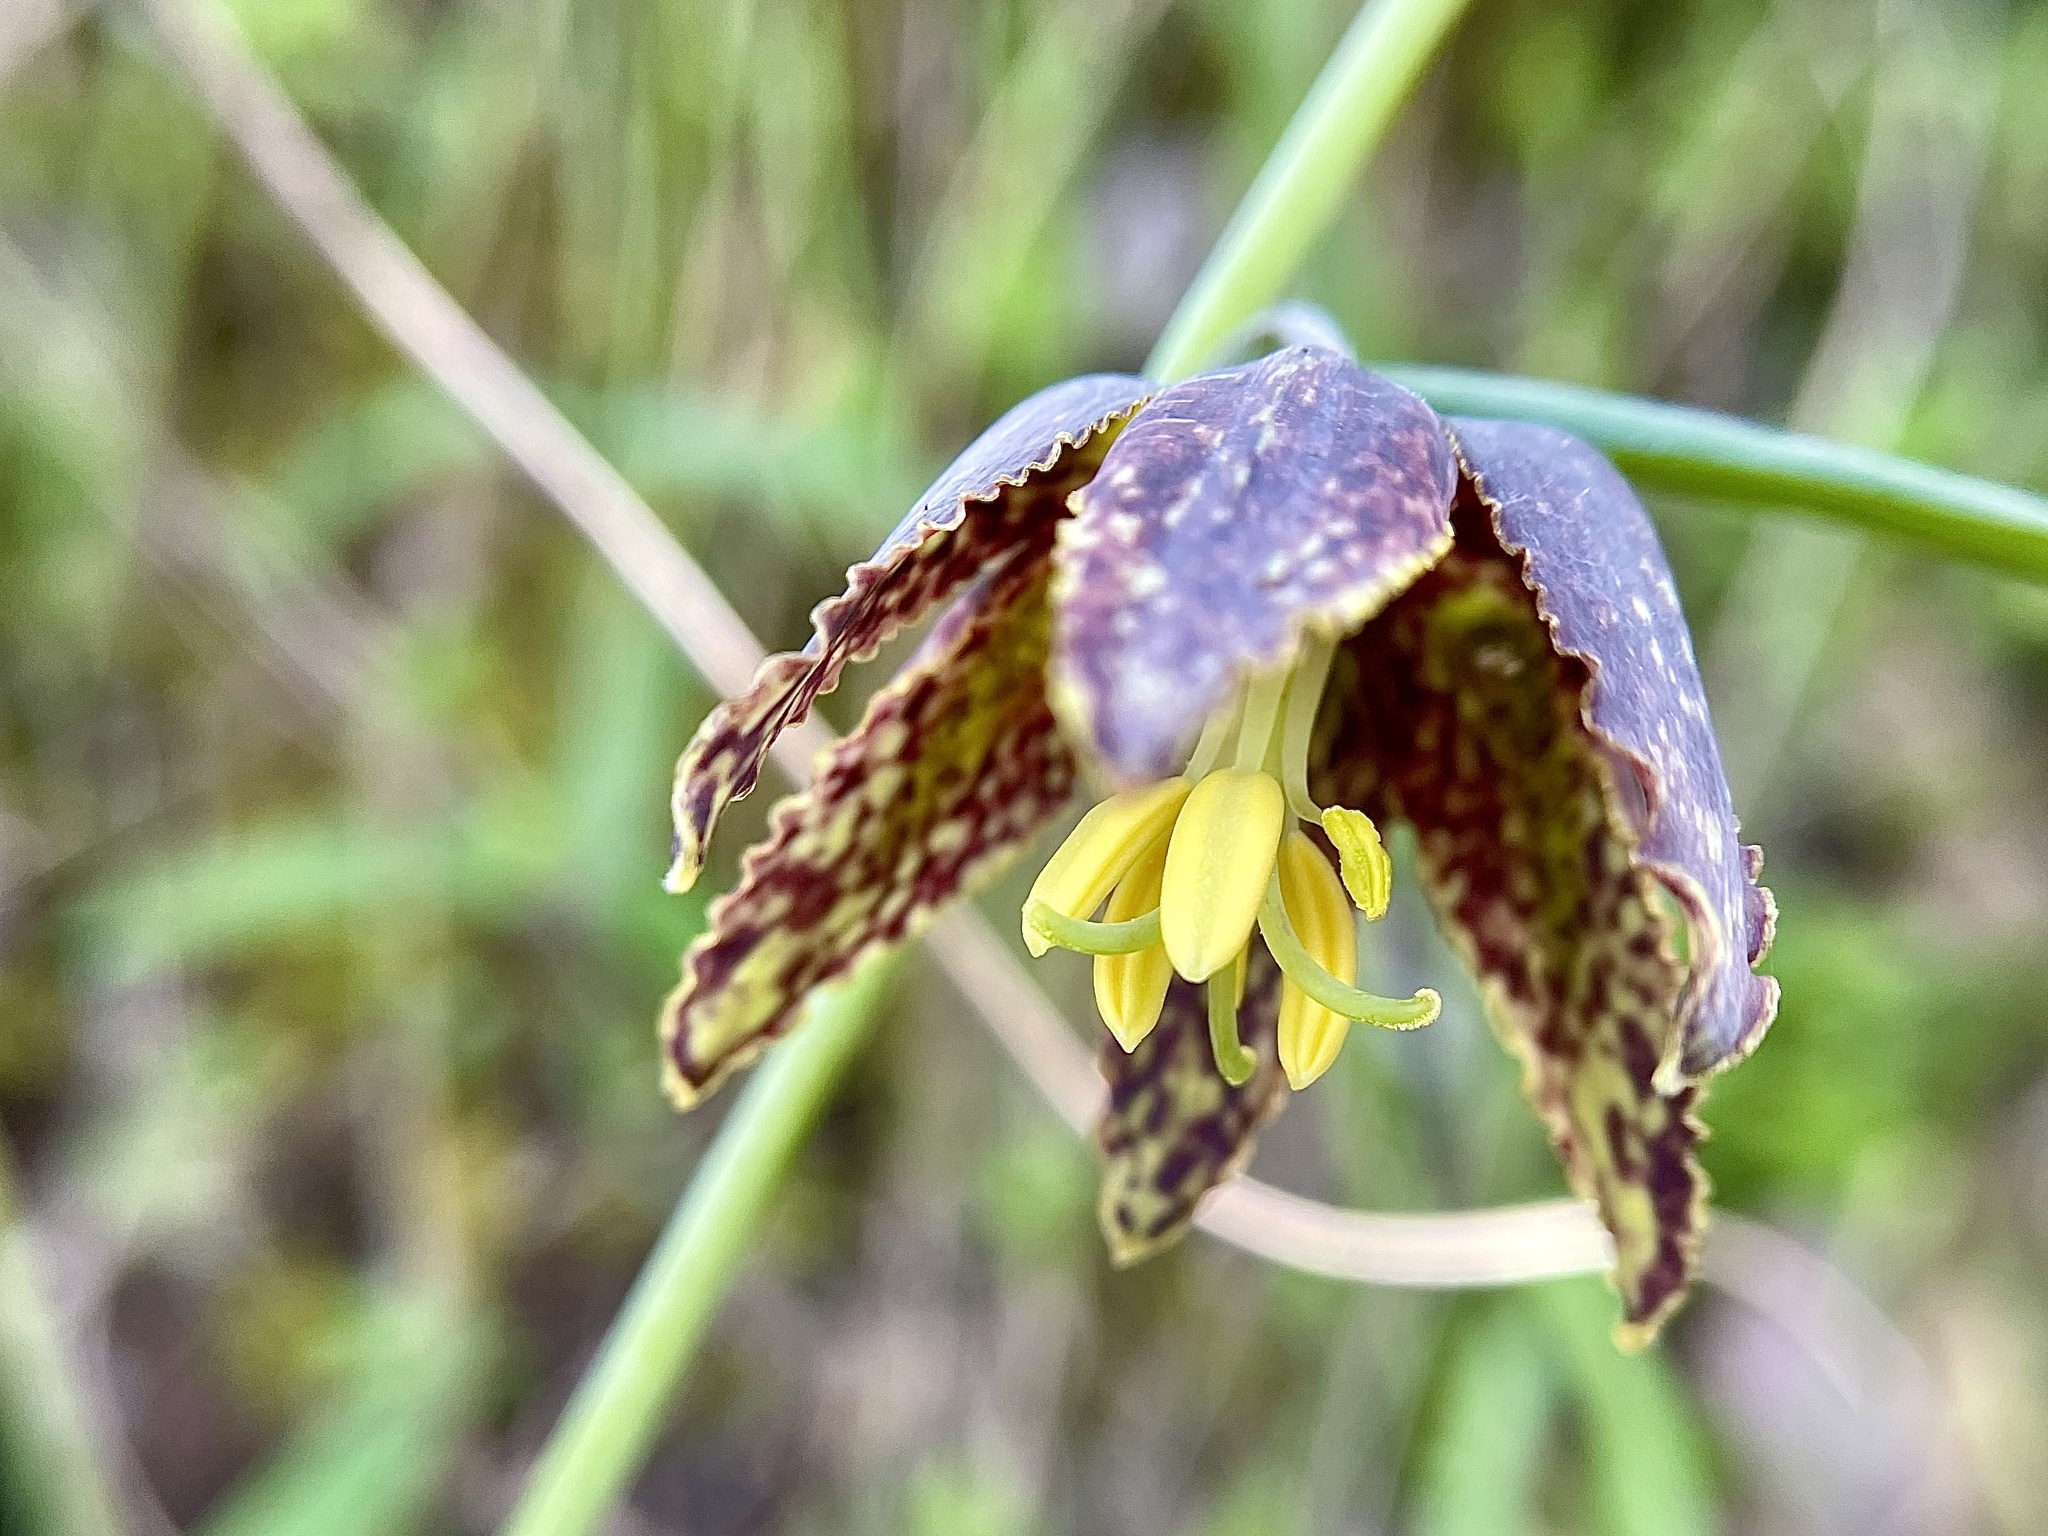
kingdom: Plantae
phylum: Tracheophyta
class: Liliopsida
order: Liliales
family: Liliaceae
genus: Fritillaria
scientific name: Fritillaria affinis
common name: Ojai fritillary
